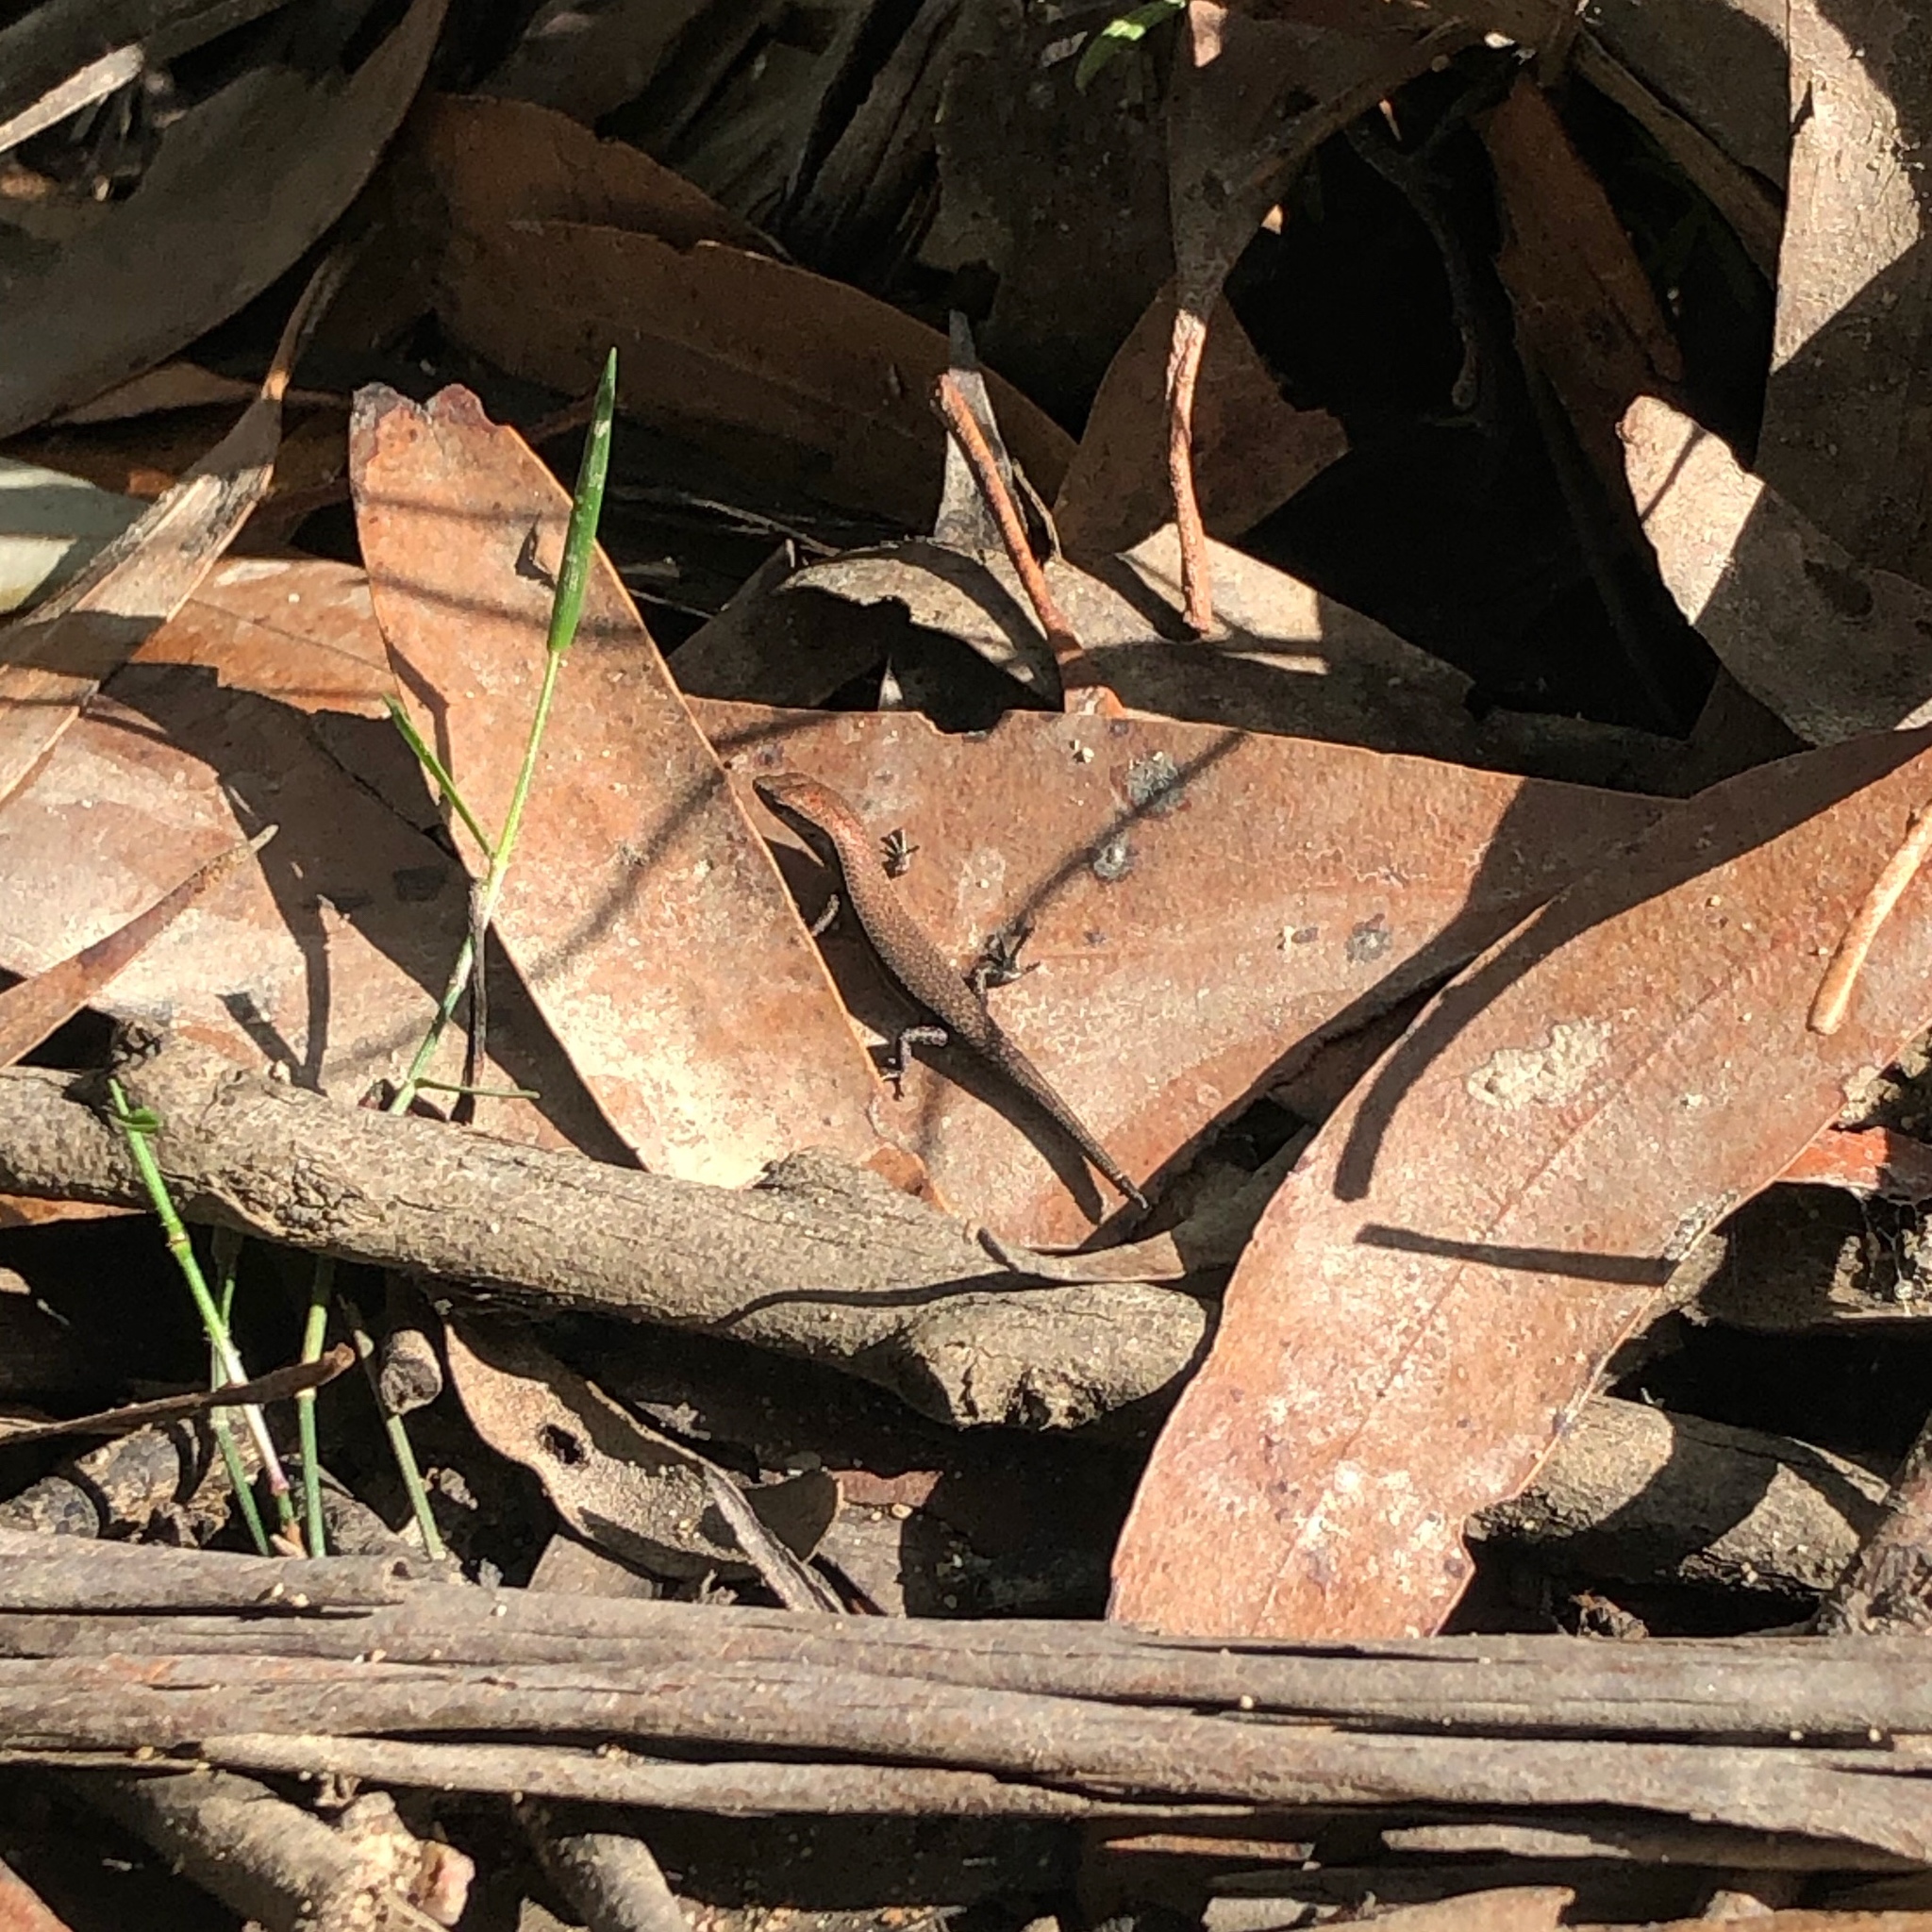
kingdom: Animalia
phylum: Chordata
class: Squamata
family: Scincidae
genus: Lampropholis
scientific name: Lampropholis delicata
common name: Plague skink
